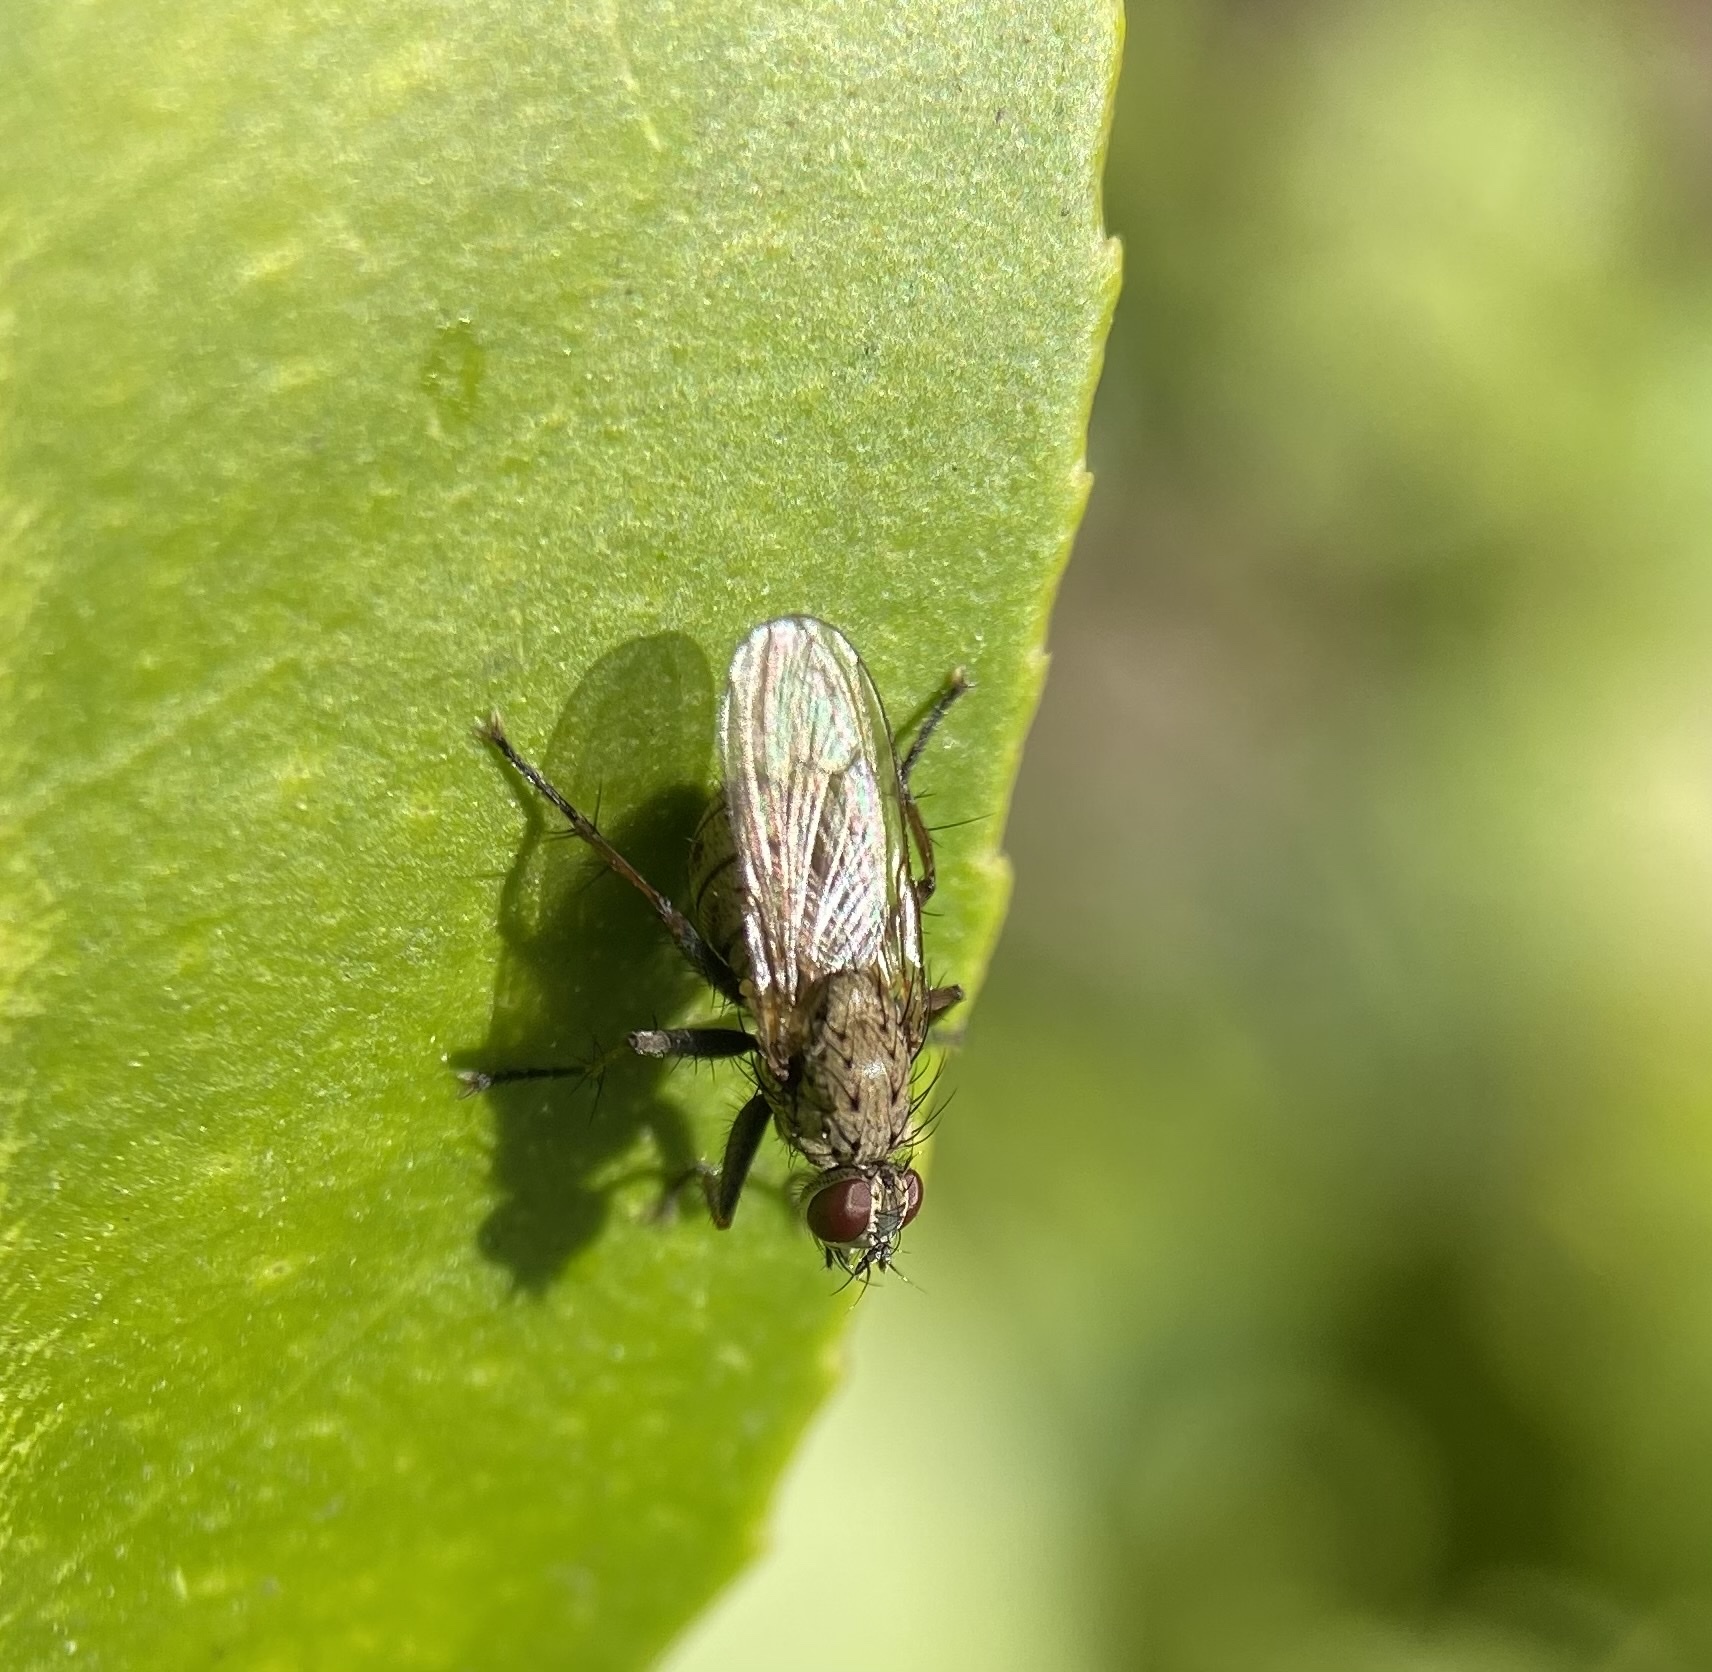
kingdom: Animalia
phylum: Arthropoda
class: Insecta
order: Diptera
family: Muscidae
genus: Coenosia
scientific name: Coenosia tigrina
